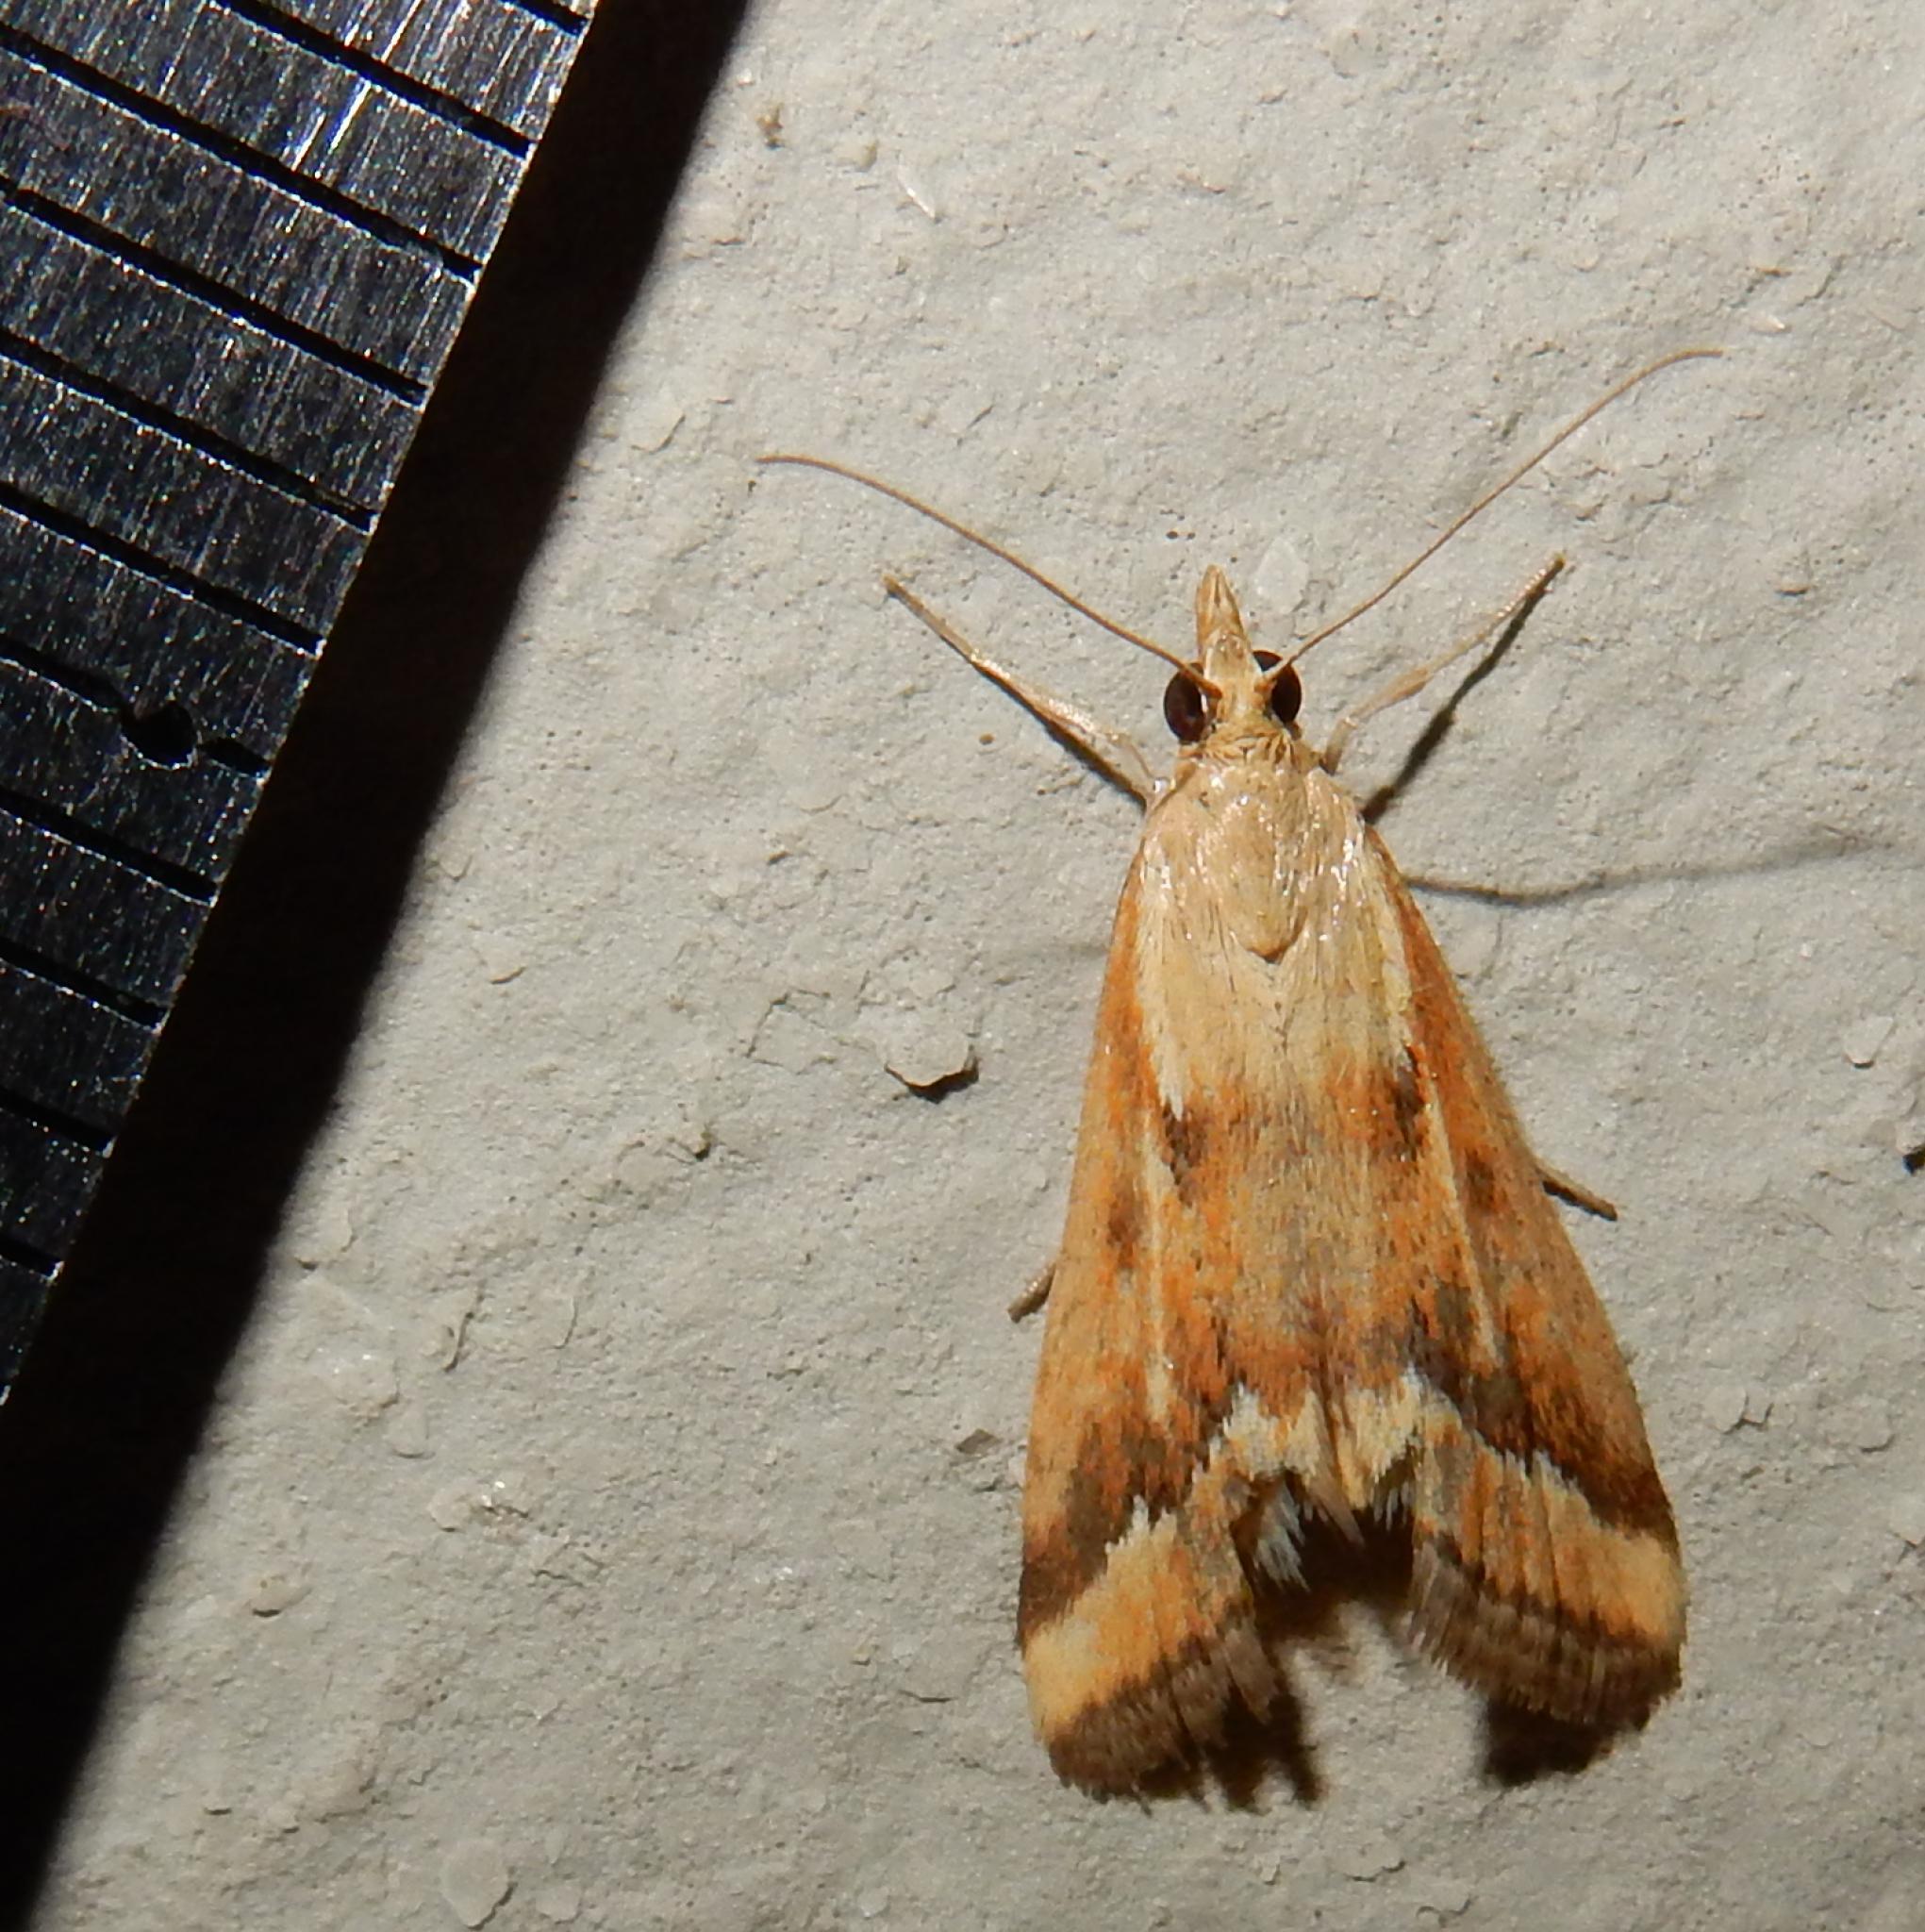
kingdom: Animalia
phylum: Arthropoda
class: Insecta
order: Lepidoptera
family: Crambidae
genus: Achyra
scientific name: Achyra coelatalis
